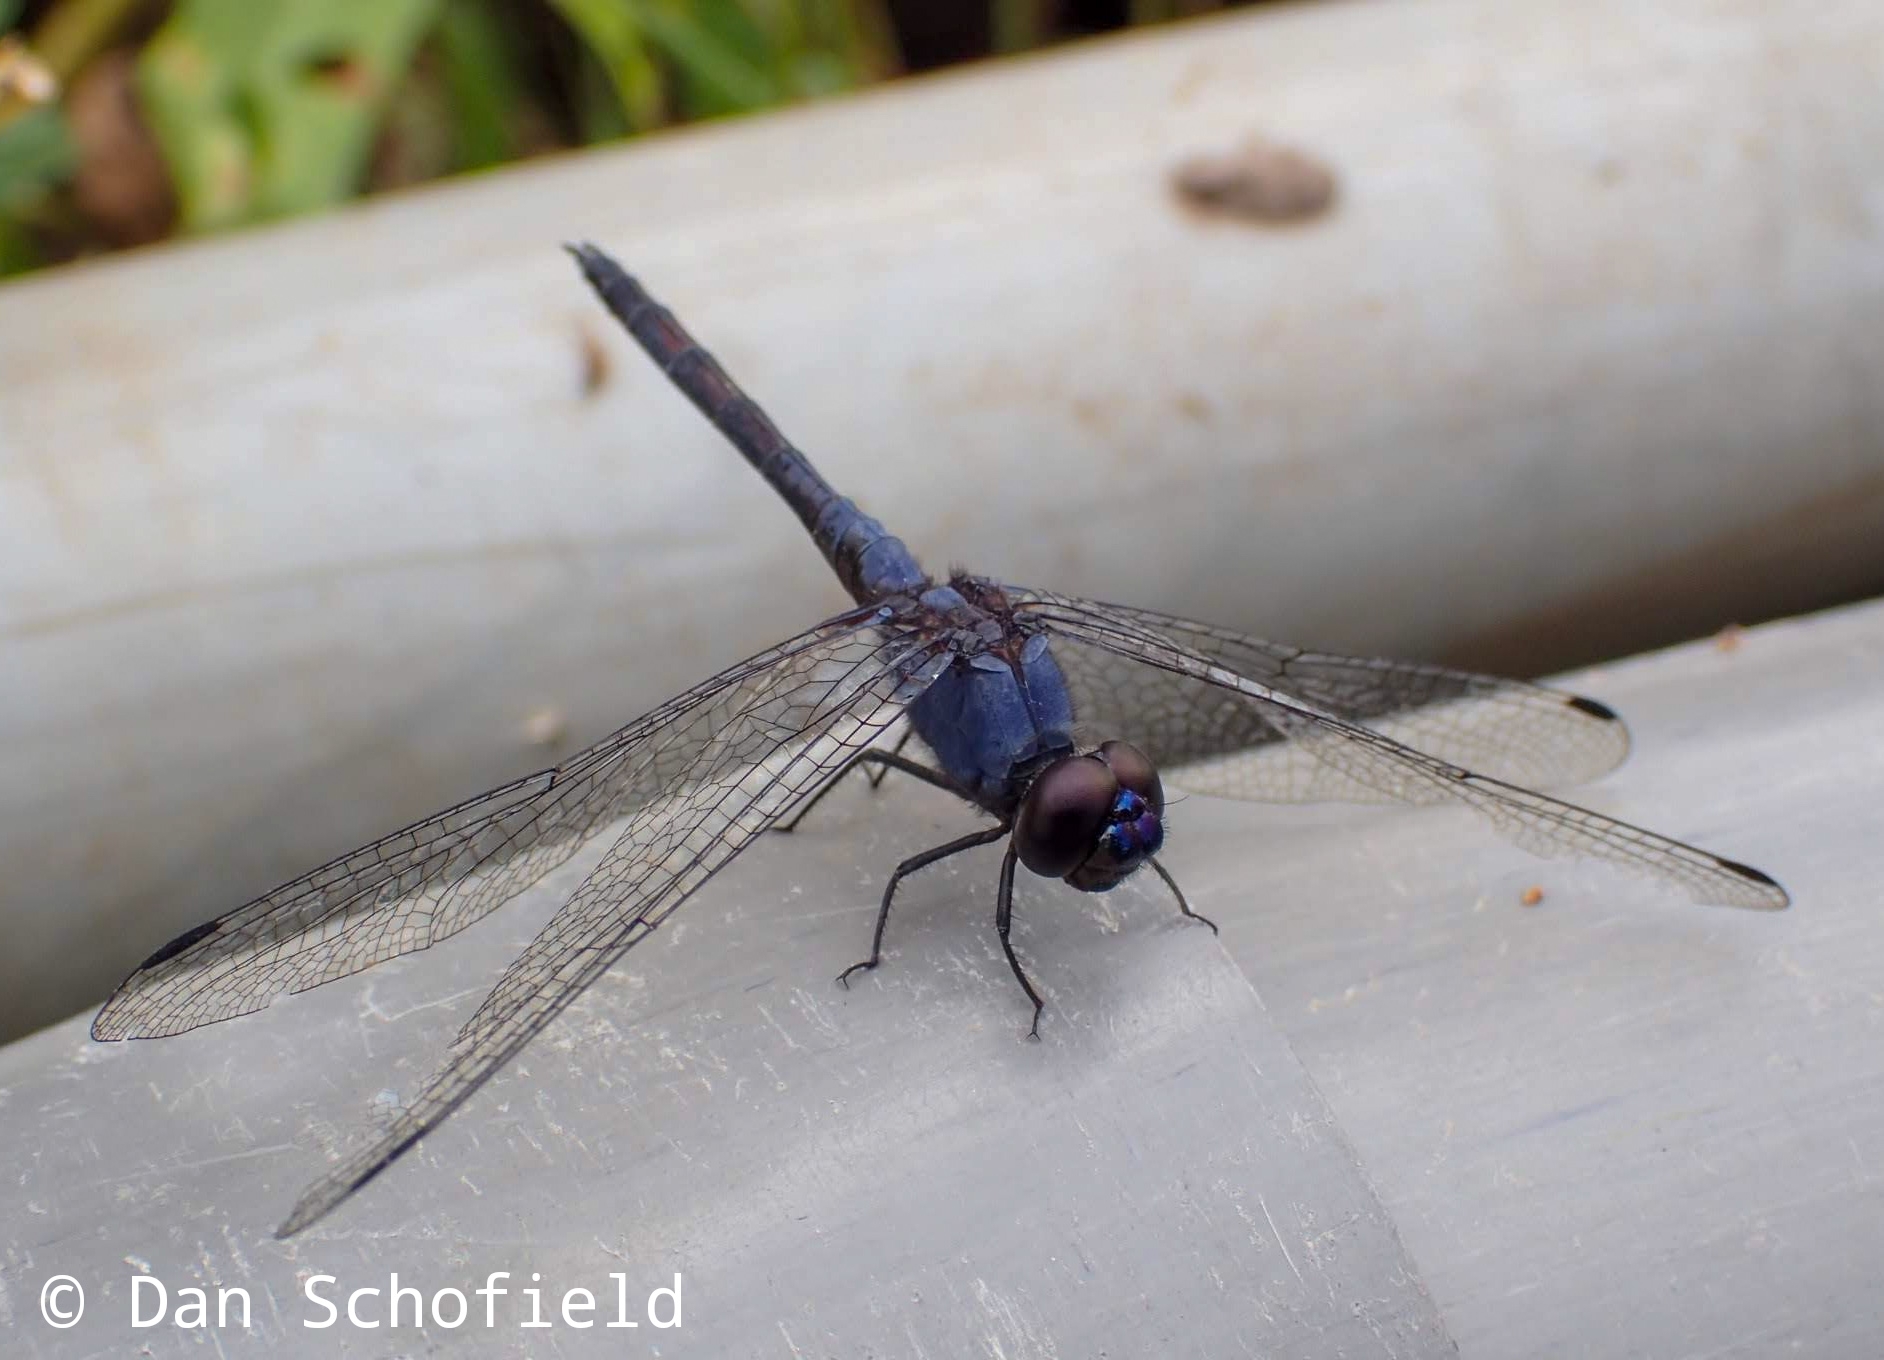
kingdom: Animalia
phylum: Arthropoda
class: Insecta
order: Odonata
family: Libellulidae
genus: Trithemis
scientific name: Trithemis festiva
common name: Indigo dropwing
